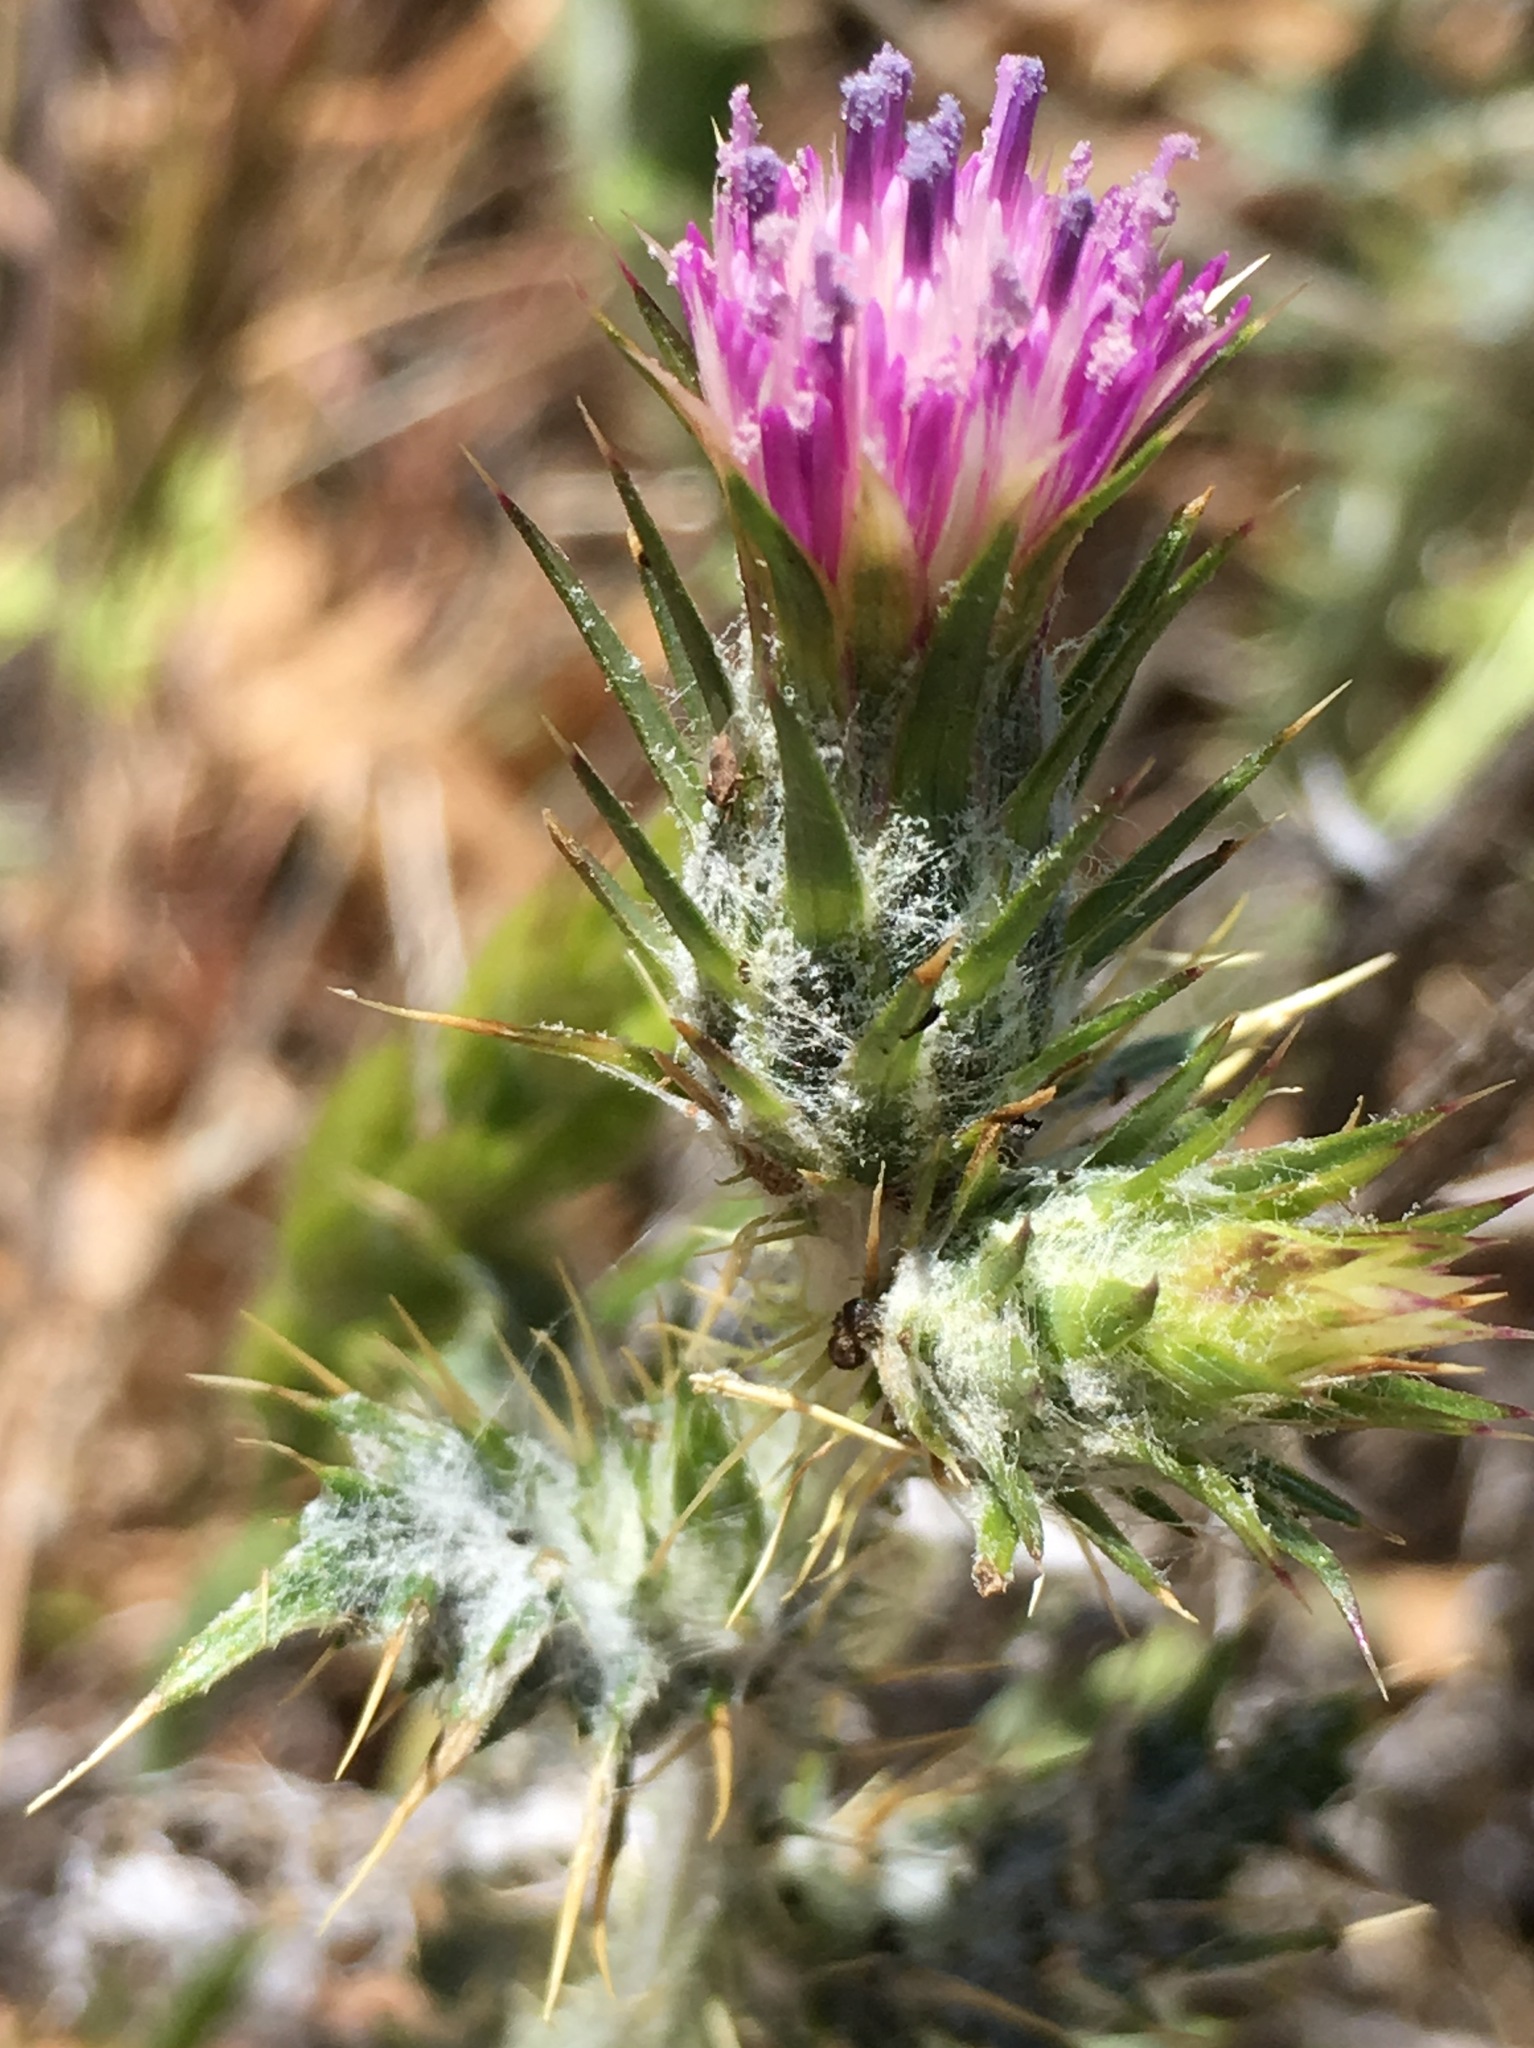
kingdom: Plantae
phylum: Tracheophyta
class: Magnoliopsida
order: Asterales
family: Asteraceae
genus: Carduus
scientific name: Carduus pycnocephalus
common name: Plymouth thistle
